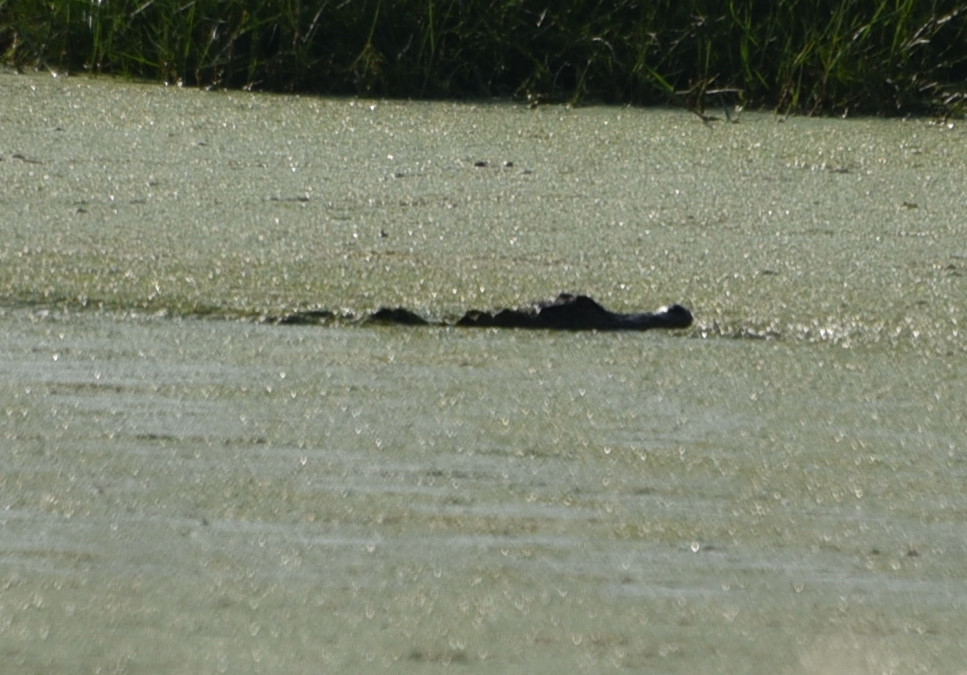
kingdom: Animalia
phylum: Chordata
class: Crocodylia
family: Alligatoridae
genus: Alligator
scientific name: Alligator mississippiensis
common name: American alligator
